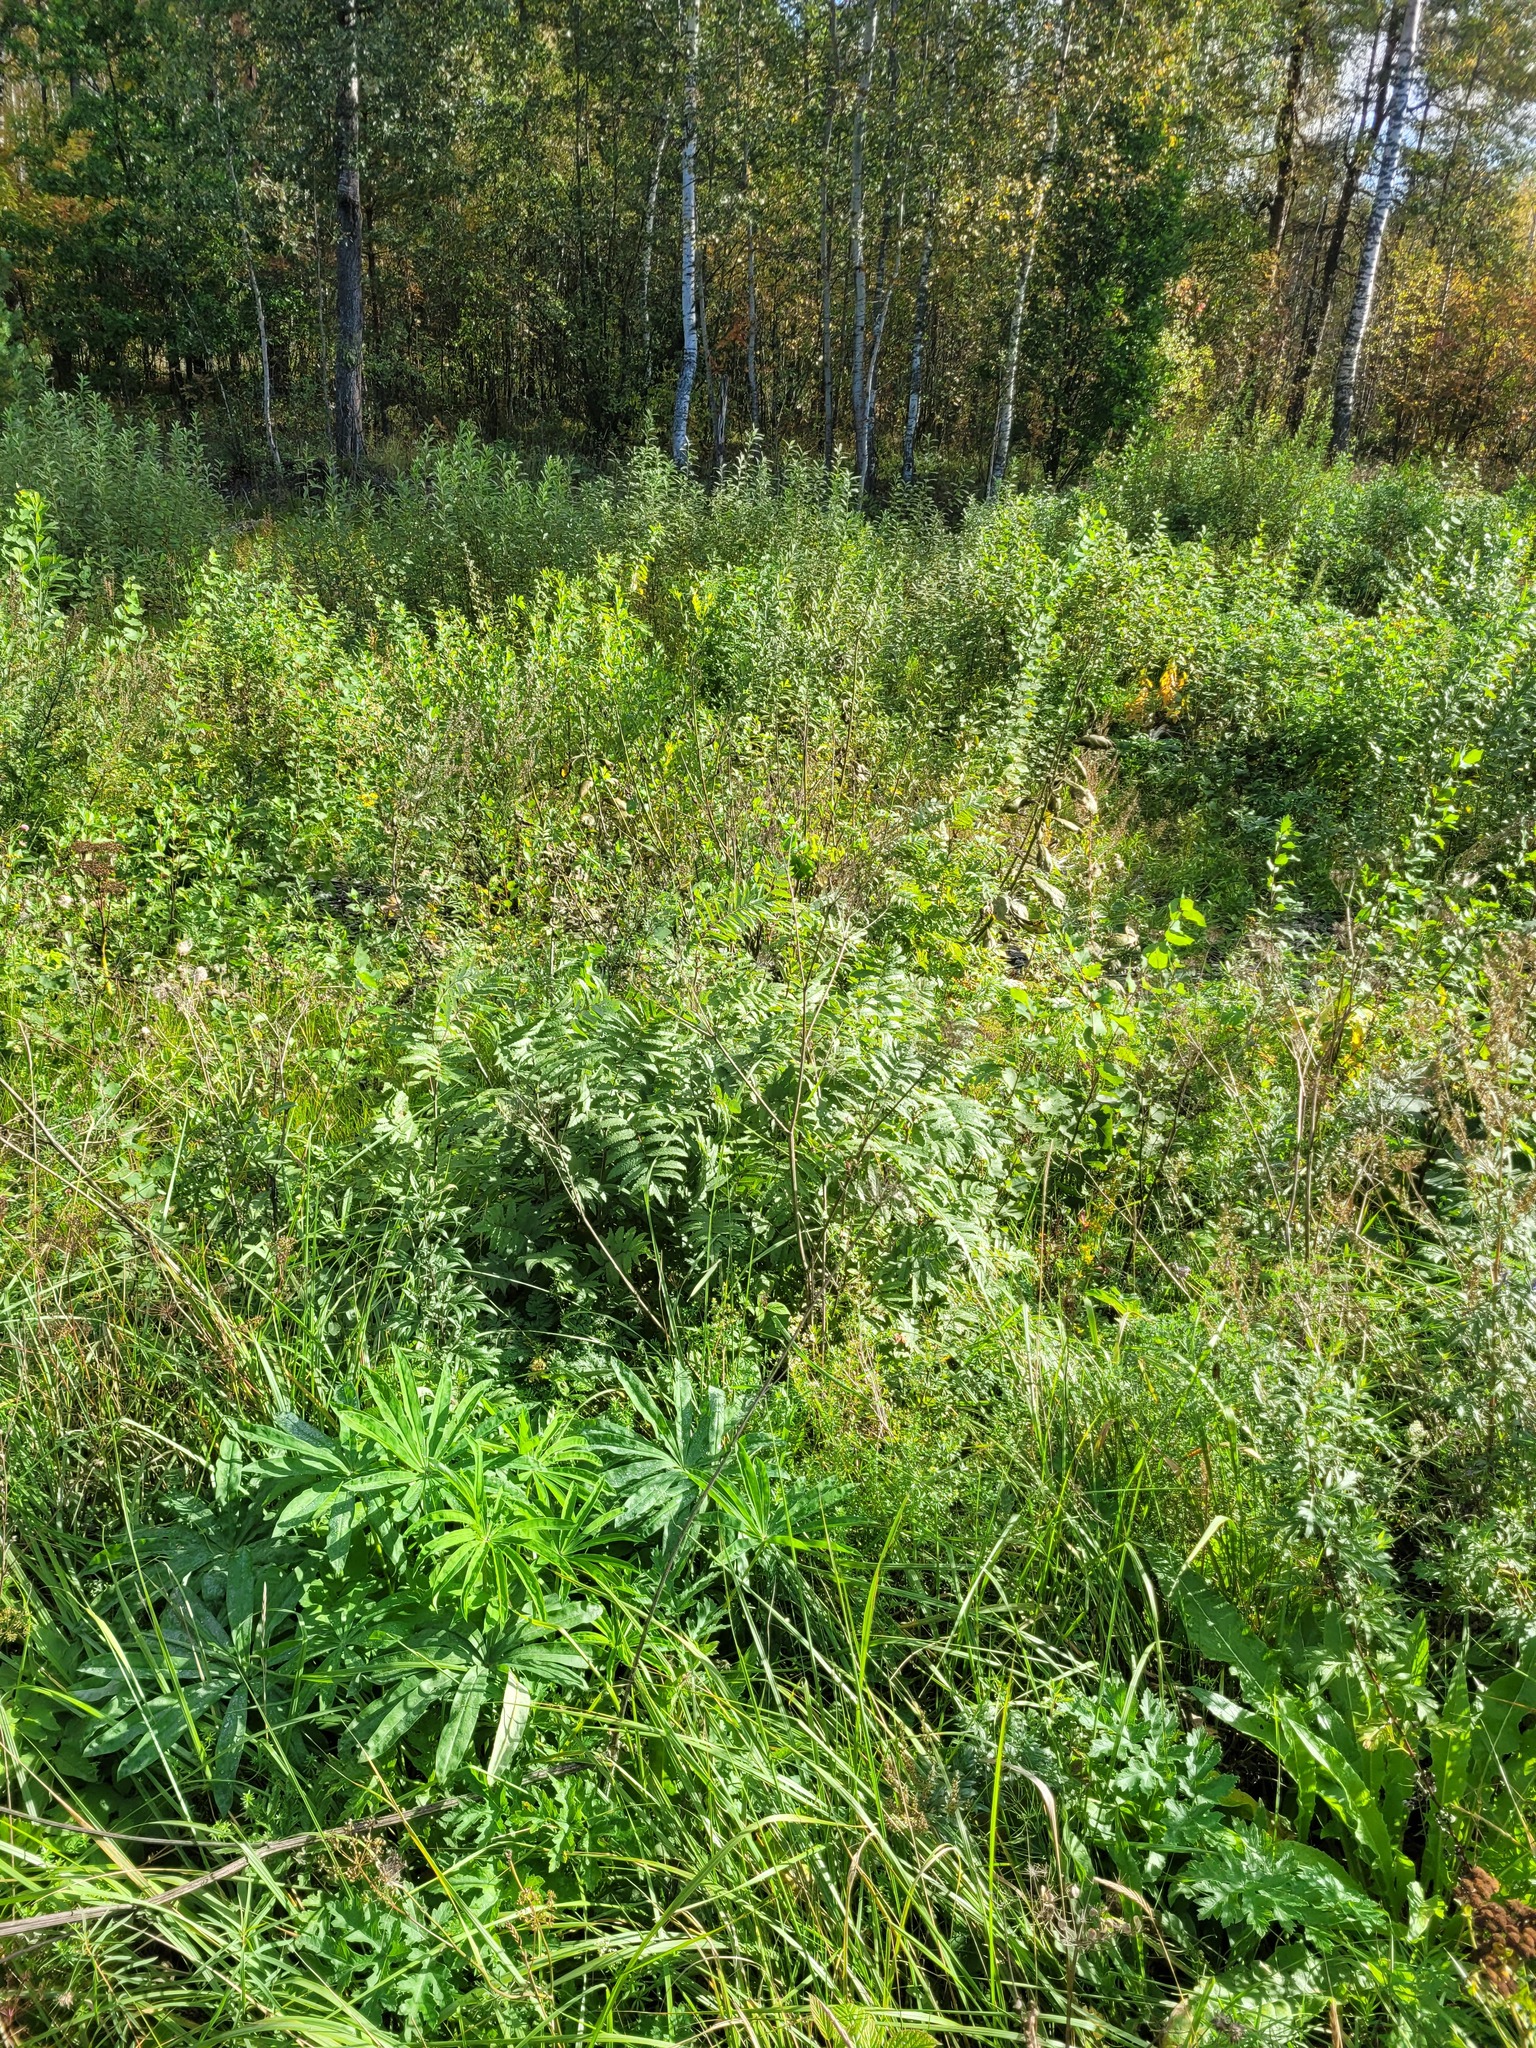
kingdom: Plantae
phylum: Tracheophyta
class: Magnoliopsida
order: Rosales
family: Rosaceae
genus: Sorbus
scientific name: Sorbus aucuparia
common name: Rowan
